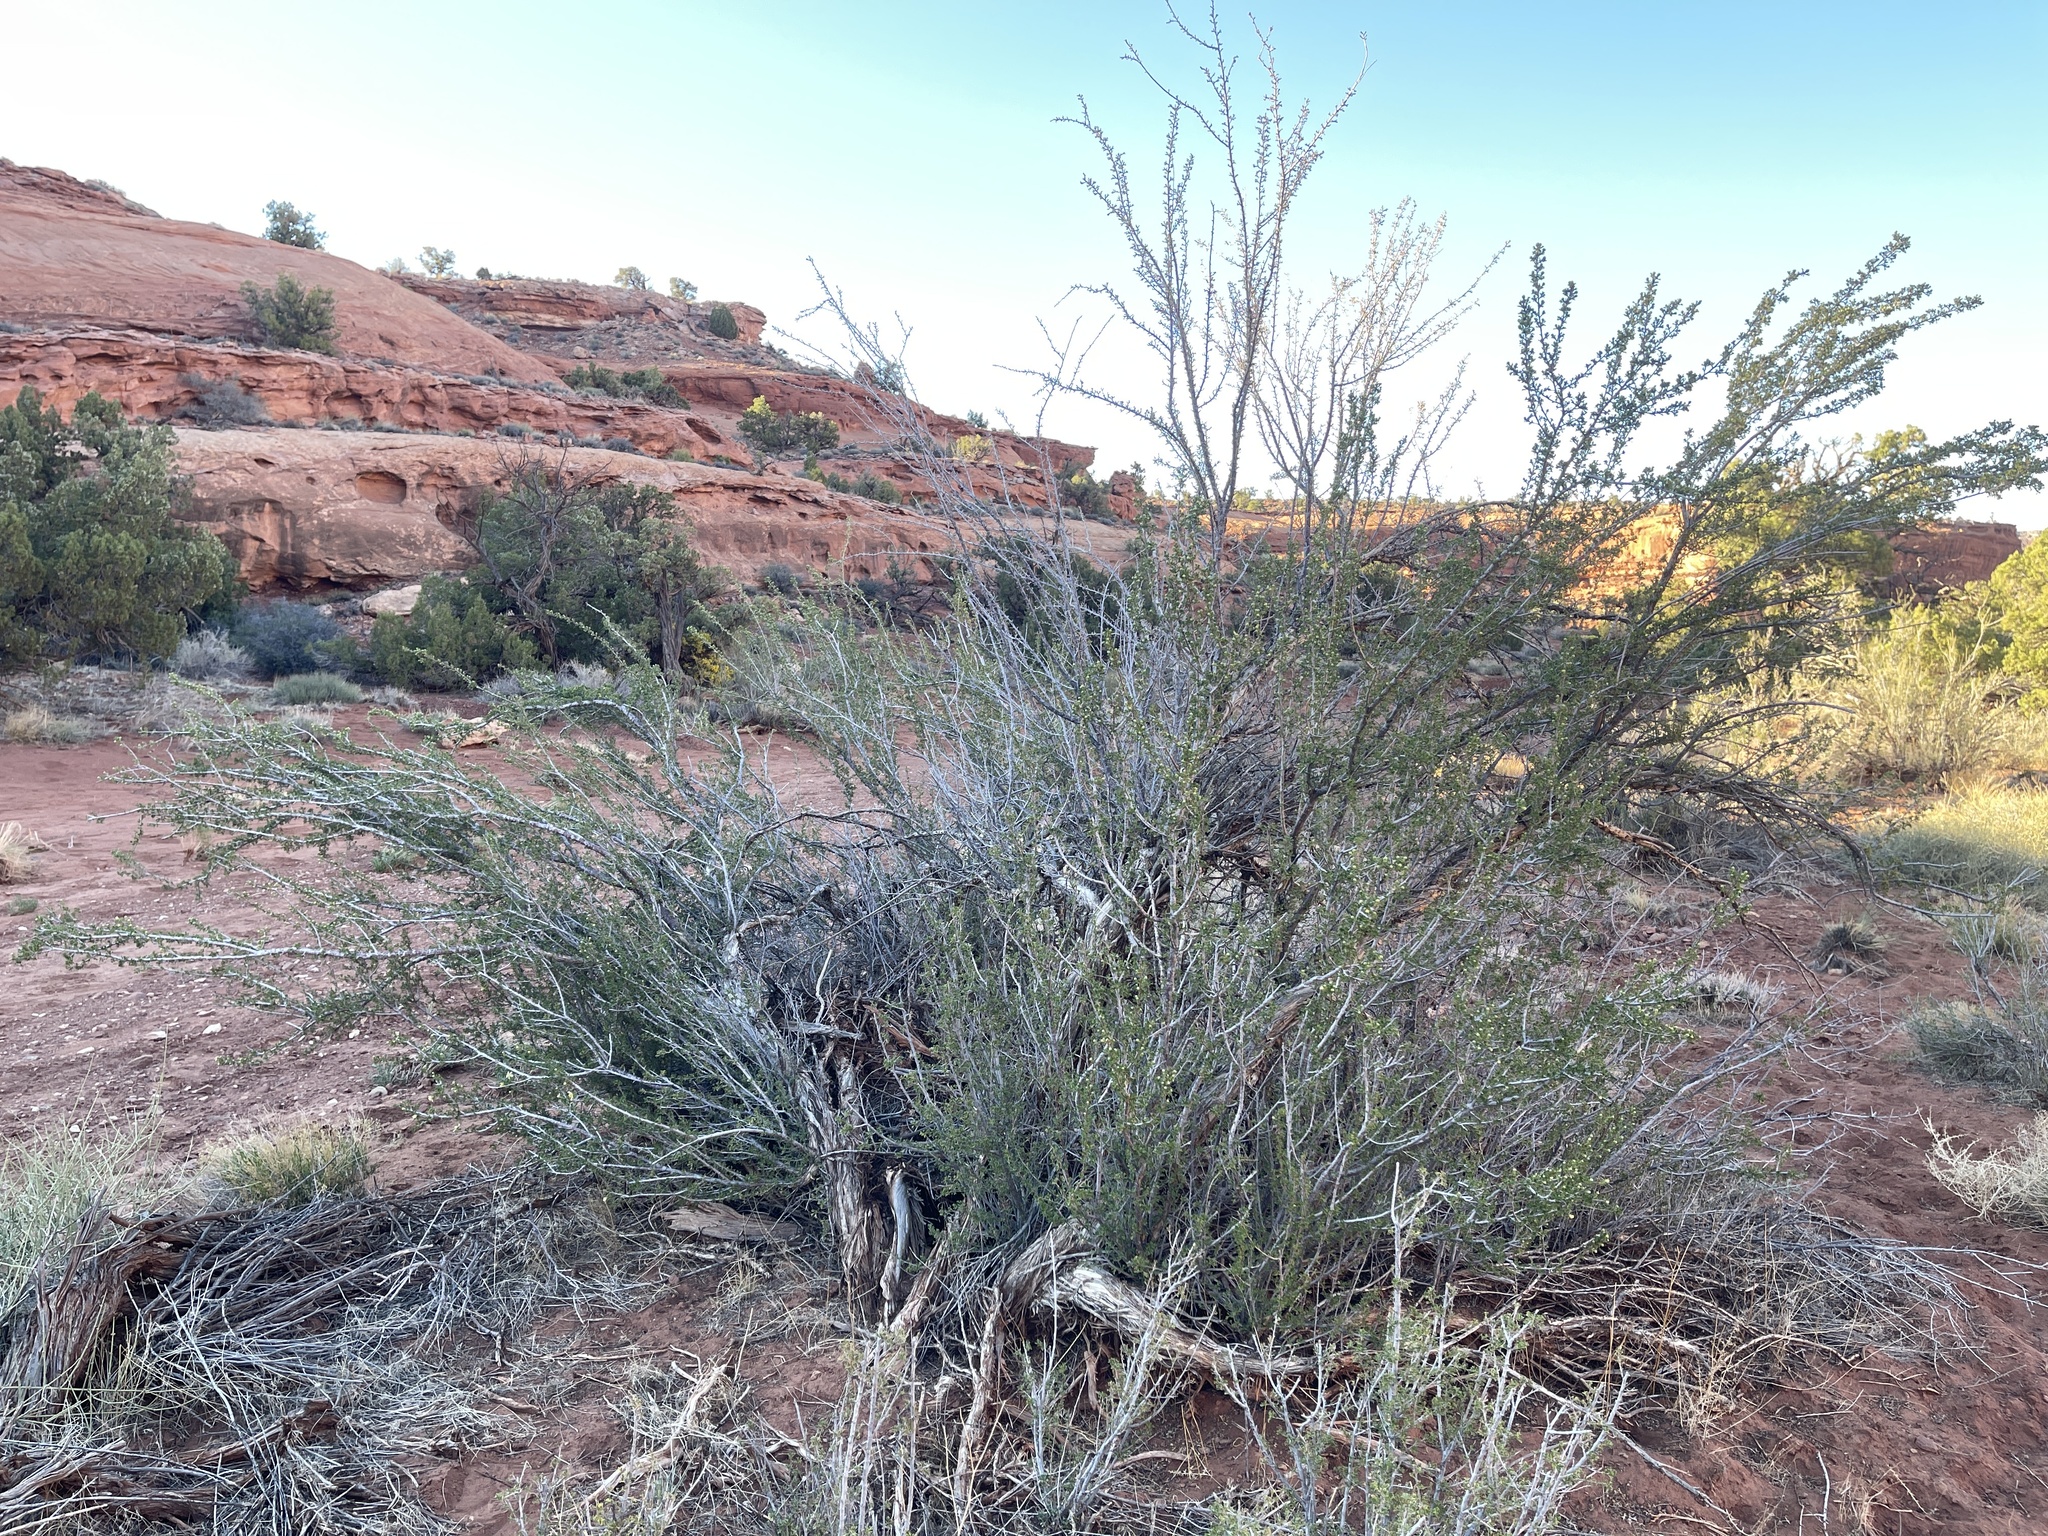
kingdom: Plantae
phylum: Tracheophyta
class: Magnoliopsida
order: Rosales
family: Rosaceae
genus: Purshia
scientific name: Purshia stansburiana
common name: Stansbury's cliffrose
